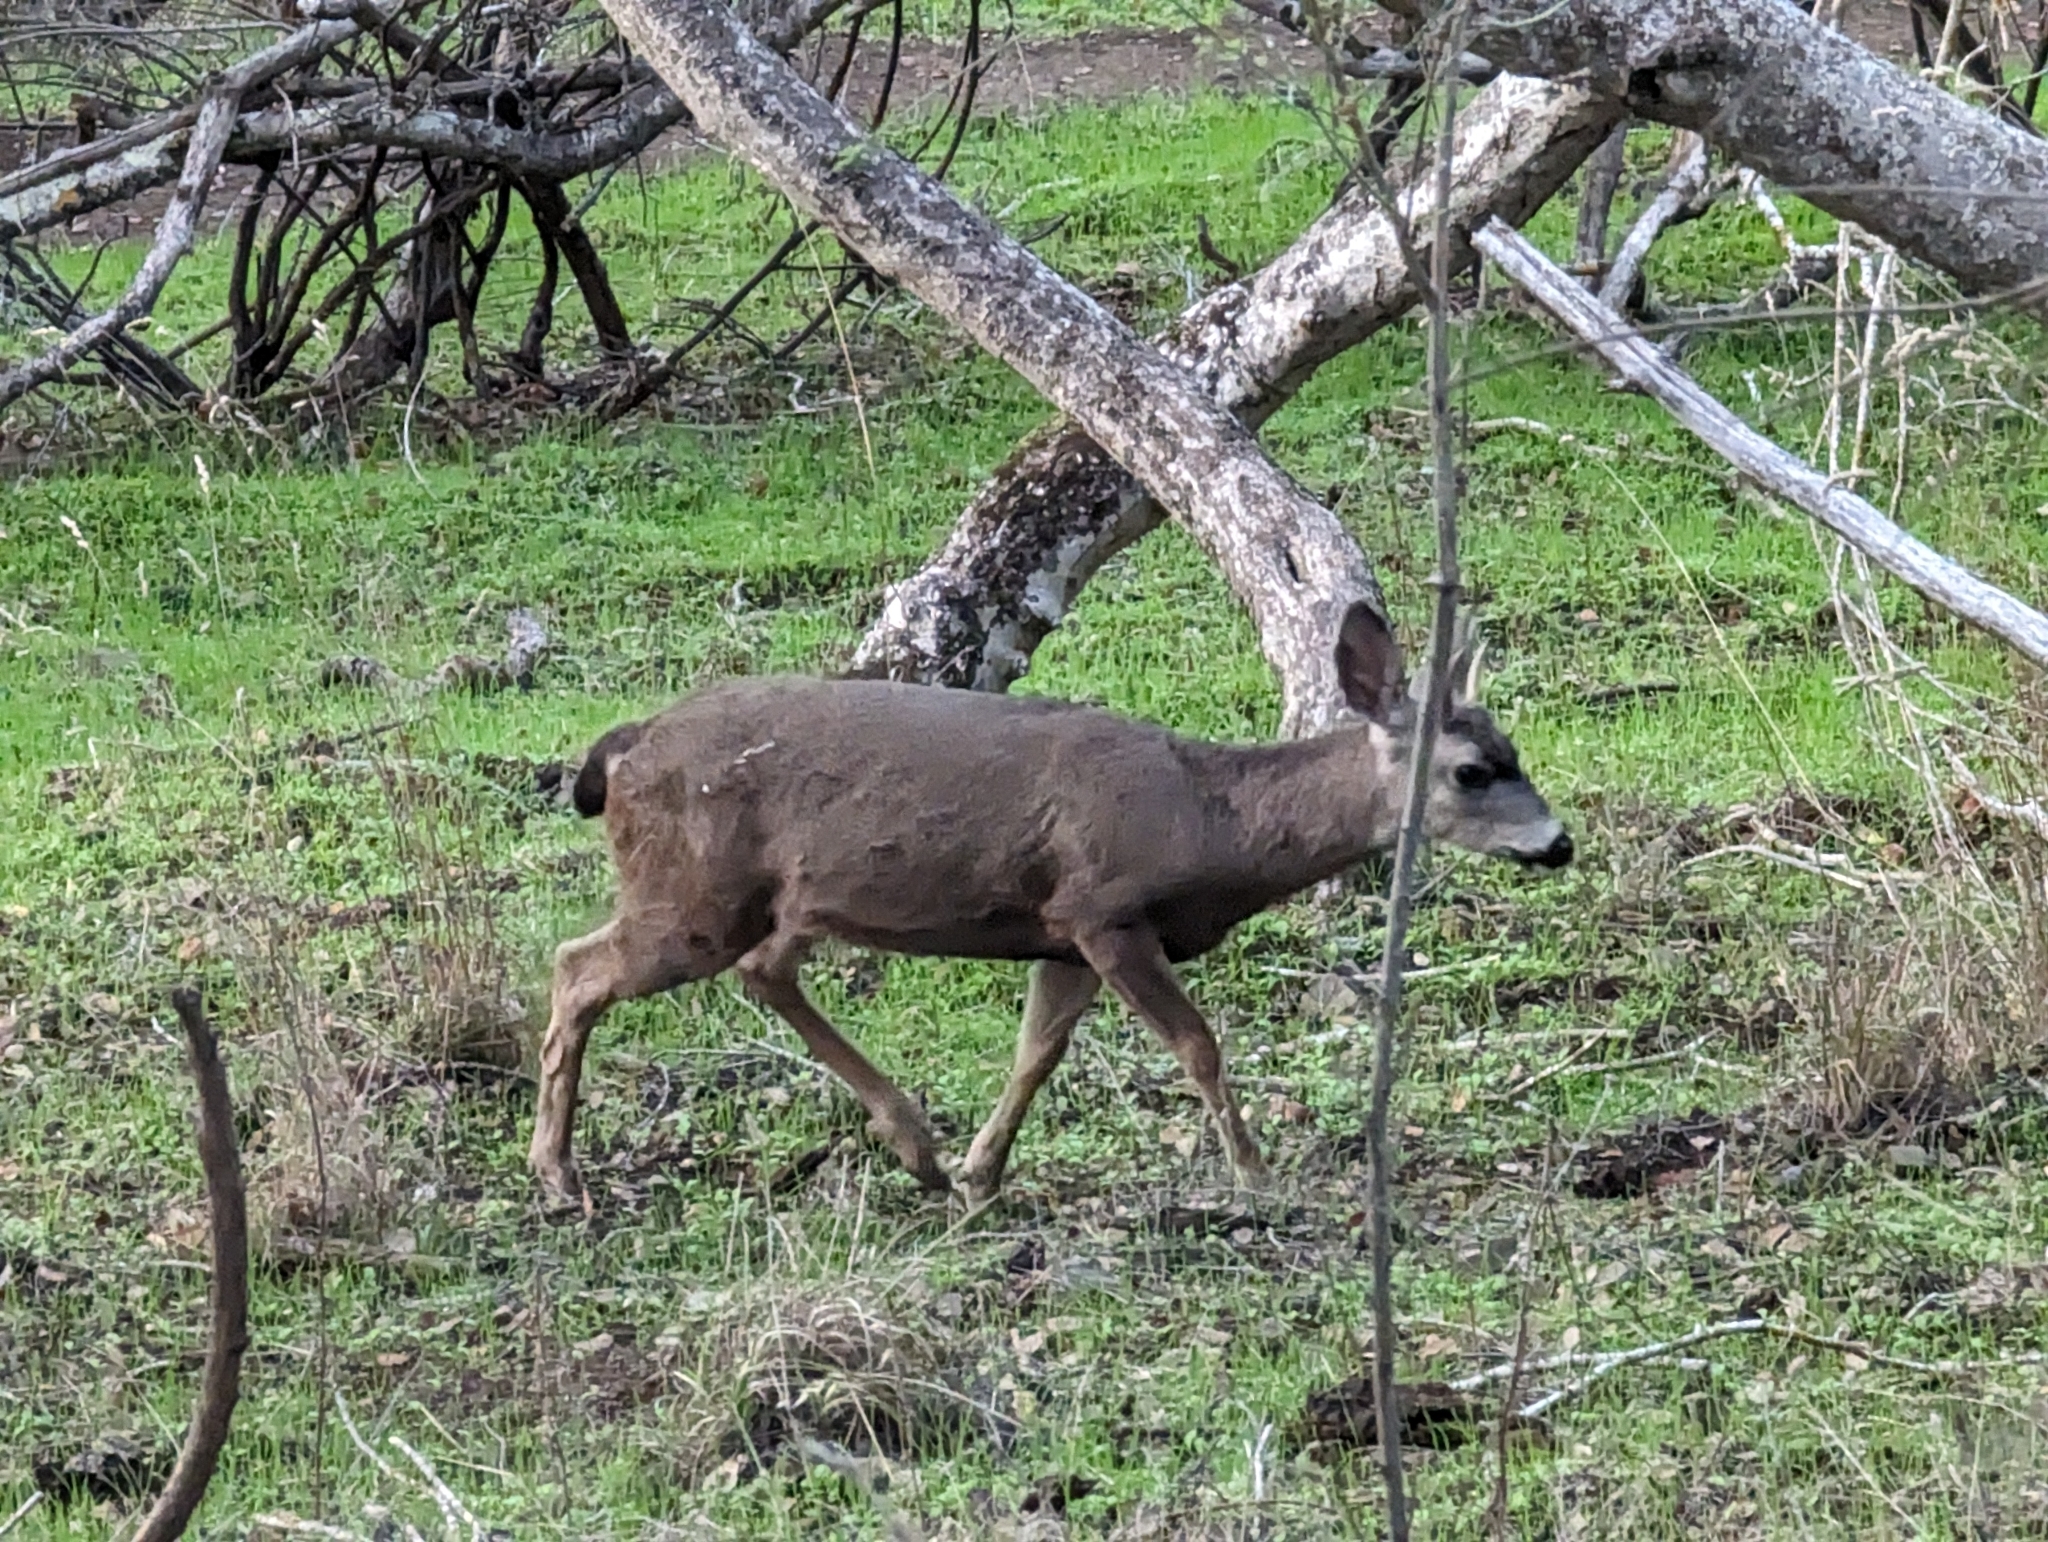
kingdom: Animalia
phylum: Chordata
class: Mammalia
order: Artiodactyla
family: Cervidae
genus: Odocoileus
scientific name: Odocoileus hemionus
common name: Mule deer
